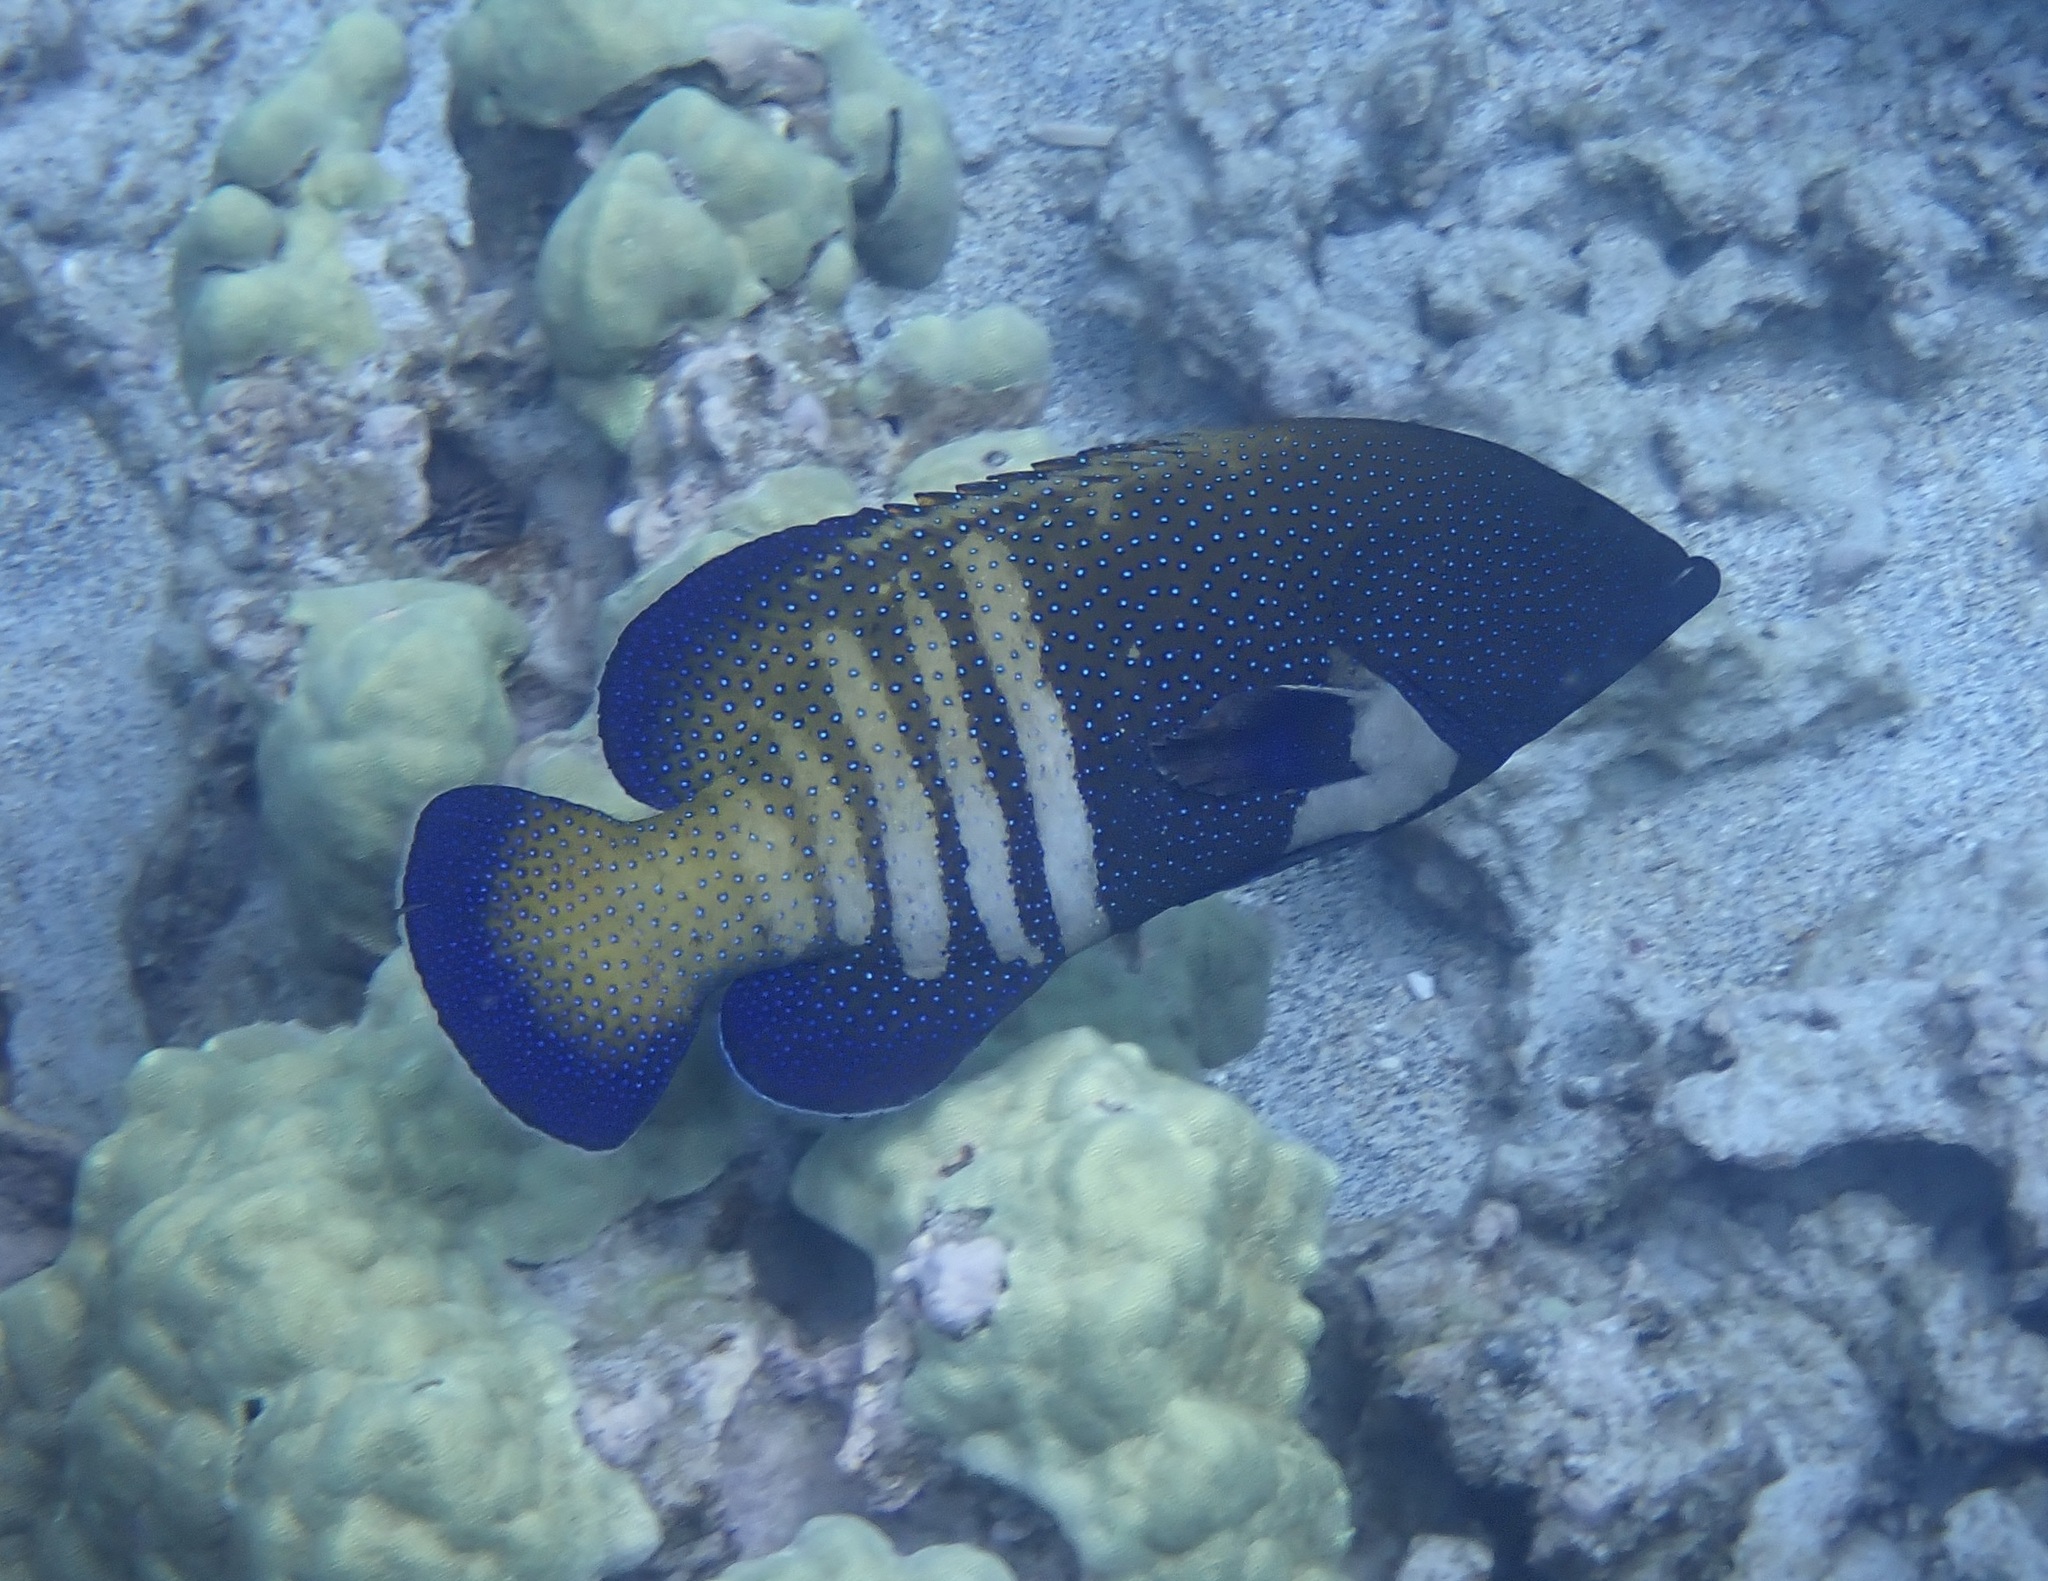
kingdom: Animalia
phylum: Chordata
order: Perciformes
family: Serranidae
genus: Cephalopholis
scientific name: Cephalopholis argus
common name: Peacock grouper
